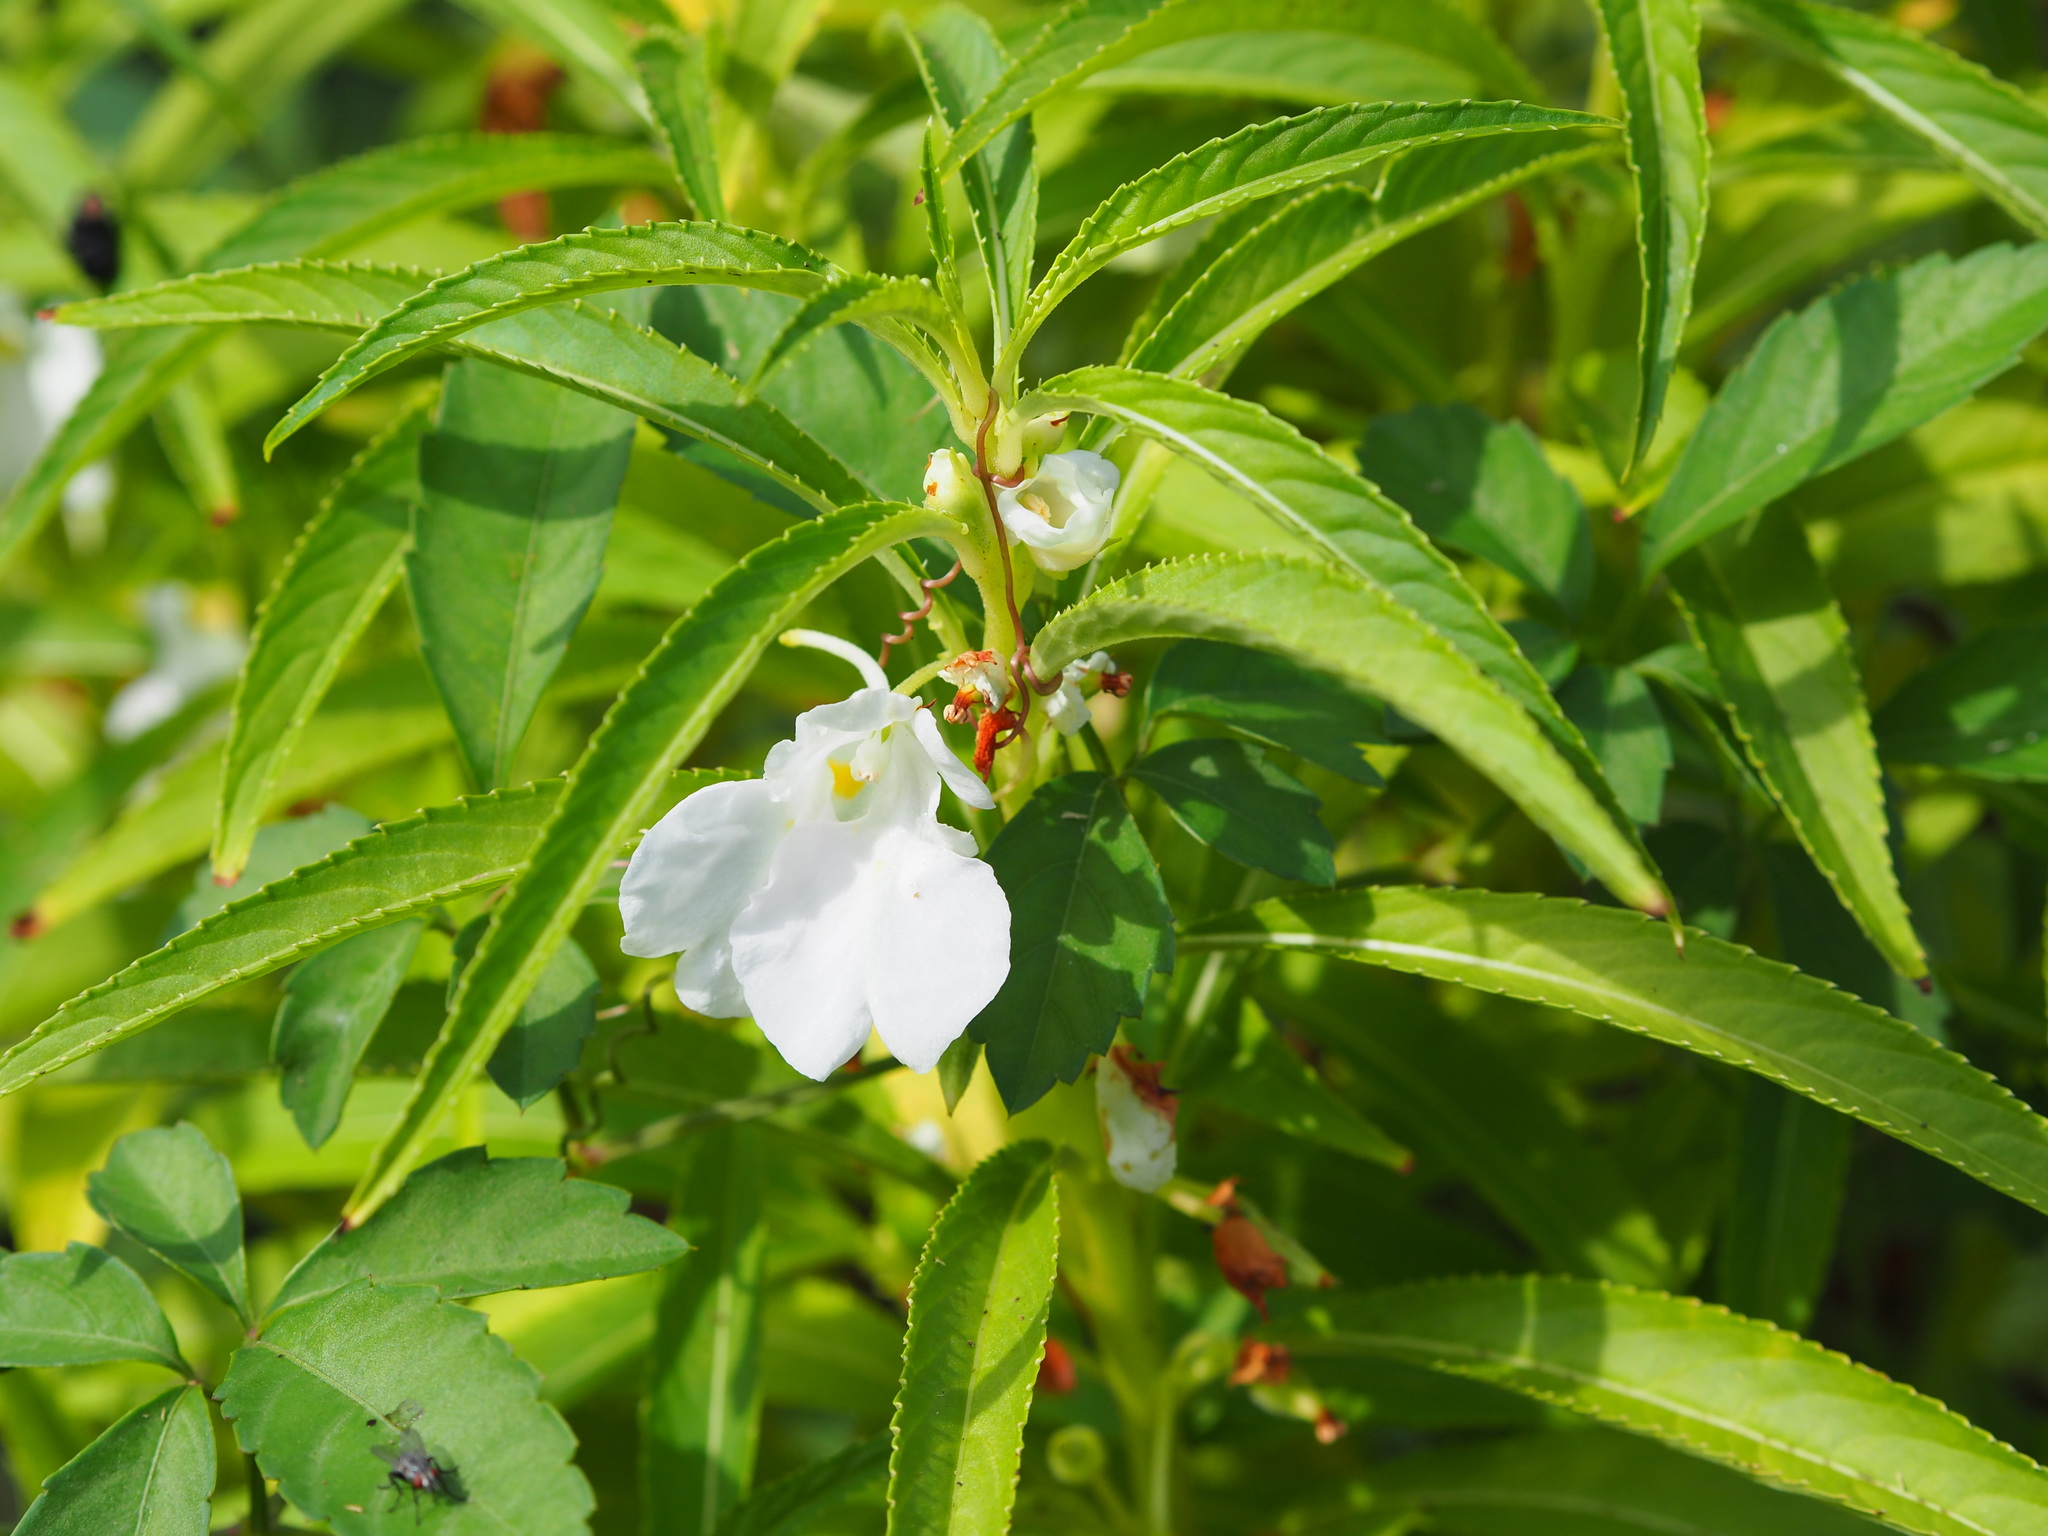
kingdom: Plantae
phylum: Tracheophyta
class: Magnoliopsida
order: Ericales
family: Balsaminaceae
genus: Impatiens
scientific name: Impatiens balsamina
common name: Balsam
